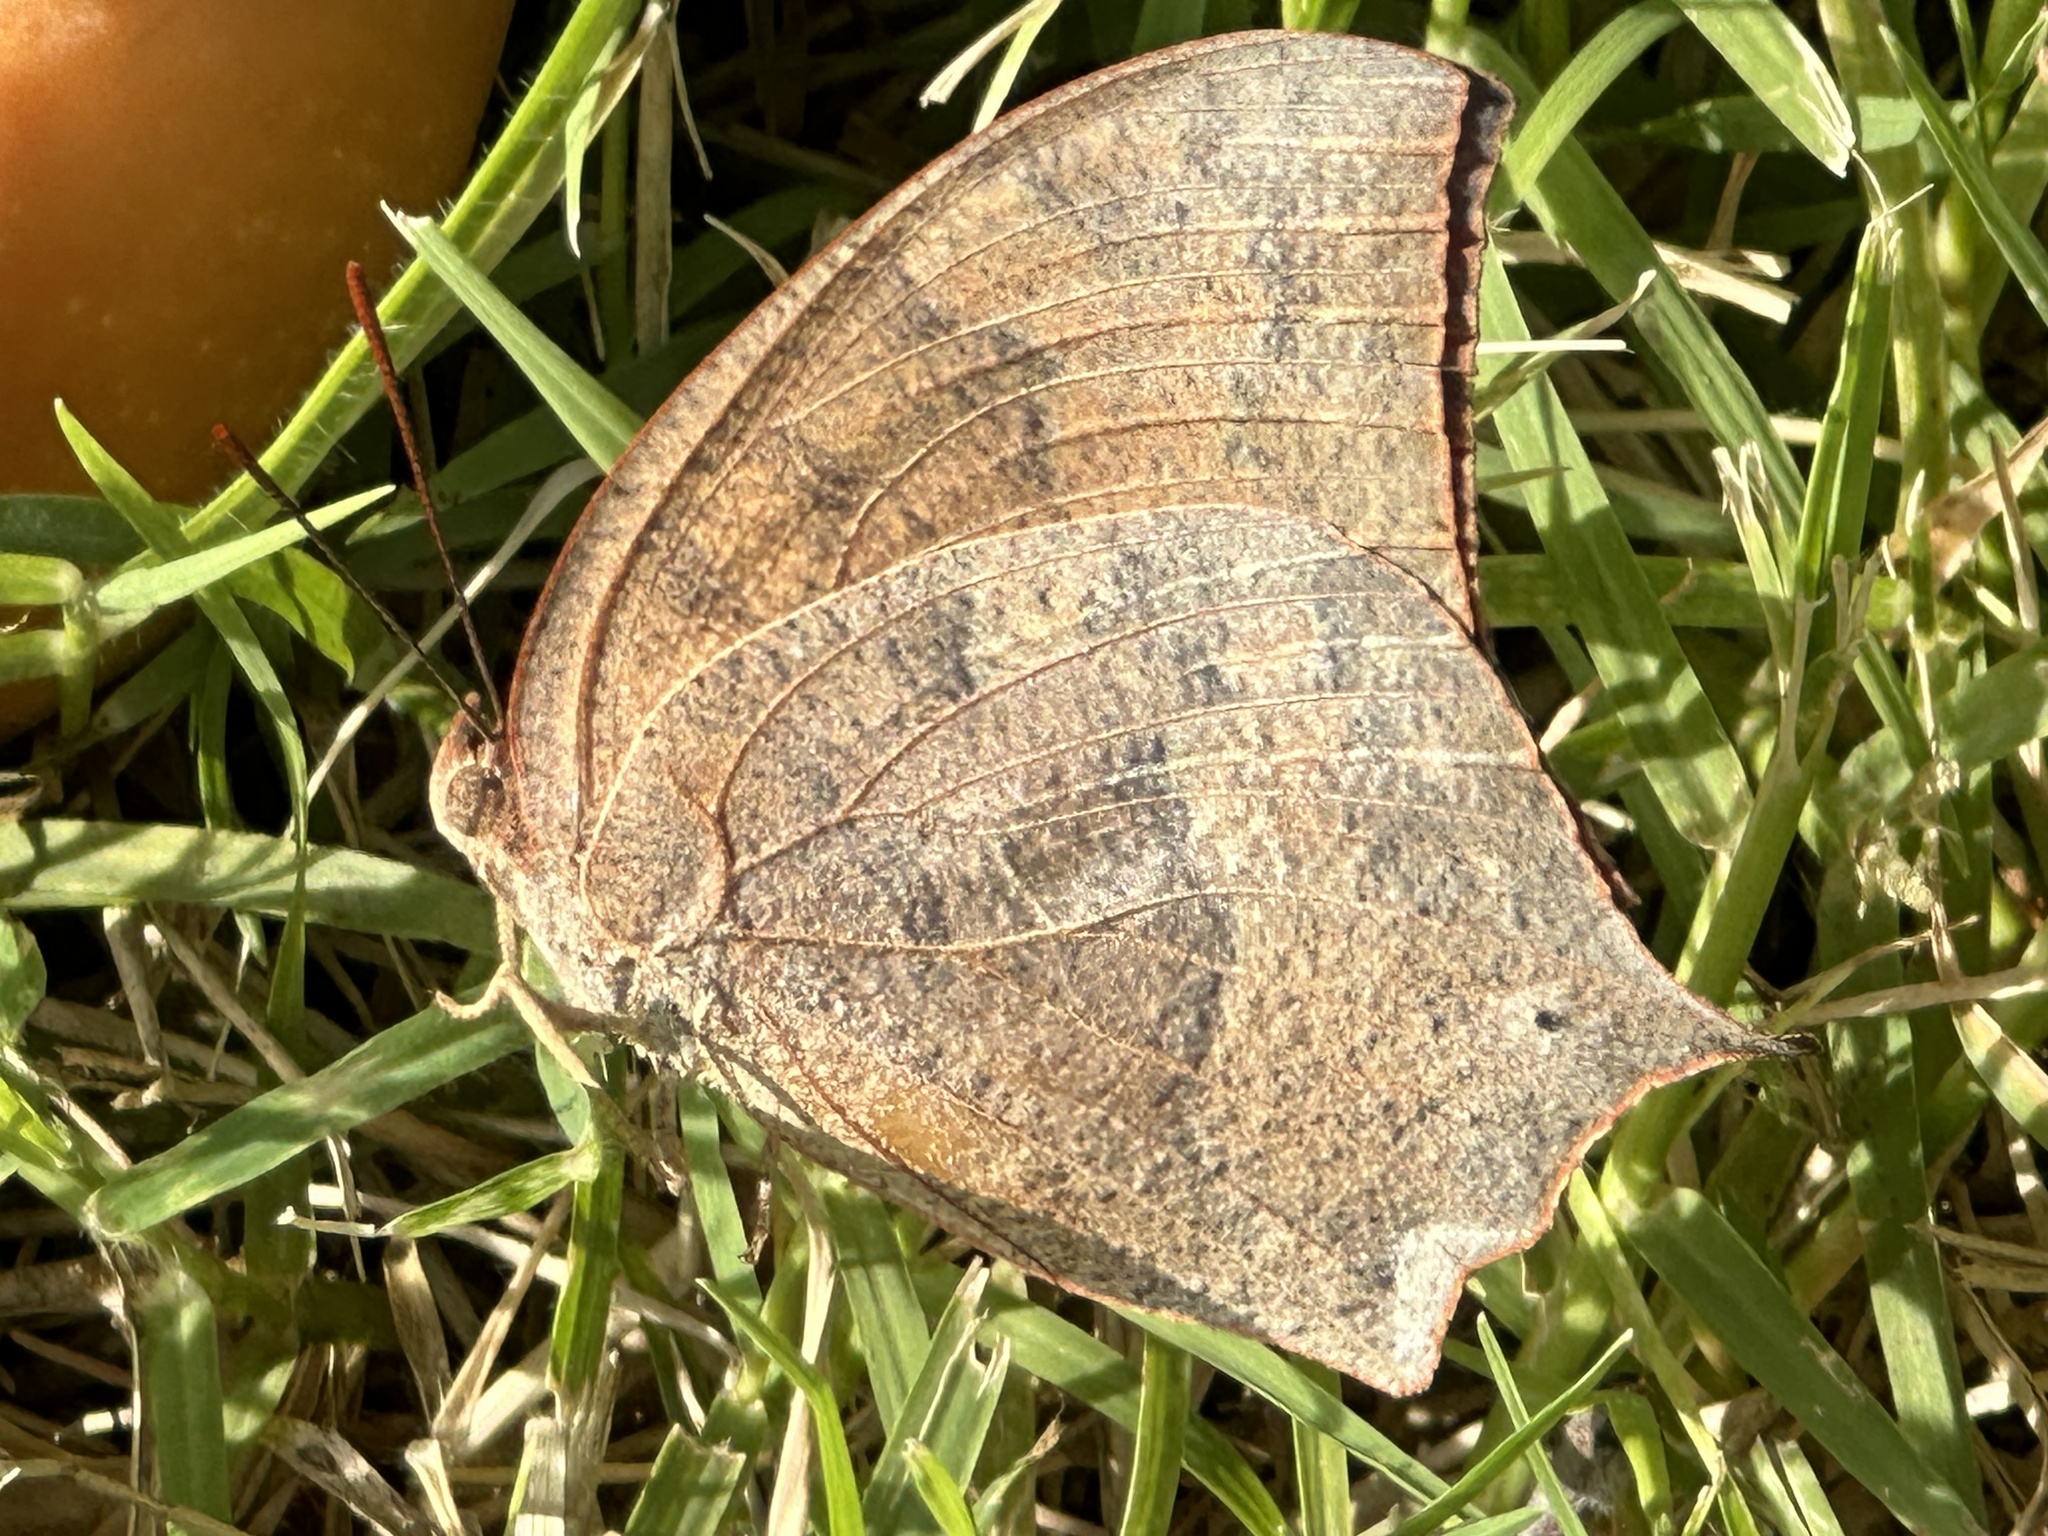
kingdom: Animalia
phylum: Arthropoda
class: Insecta
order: Lepidoptera
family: Nymphalidae
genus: Anaea
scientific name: Anaea andria
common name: Goatweed leafwing
